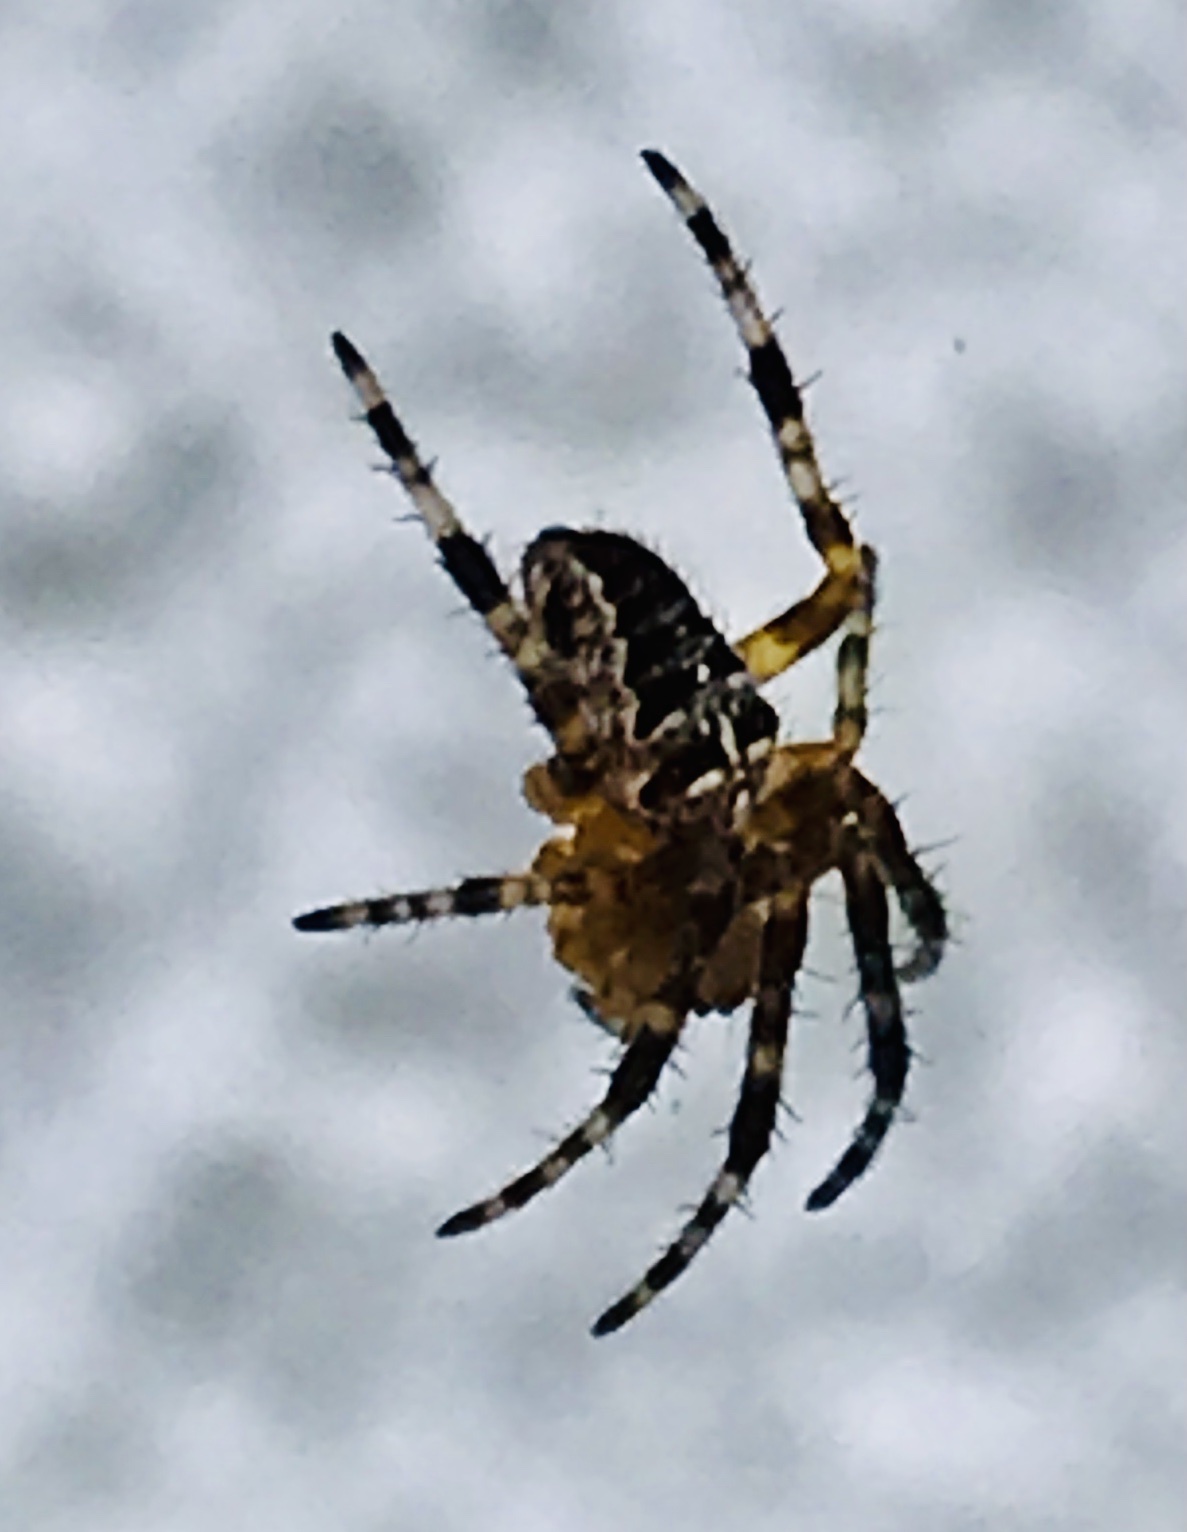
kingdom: Animalia
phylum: Arthropoda
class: Arachnida
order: Araneae
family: Araneidae
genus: Araneus
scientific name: Araneus diadematus
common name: Cross orbweaver
